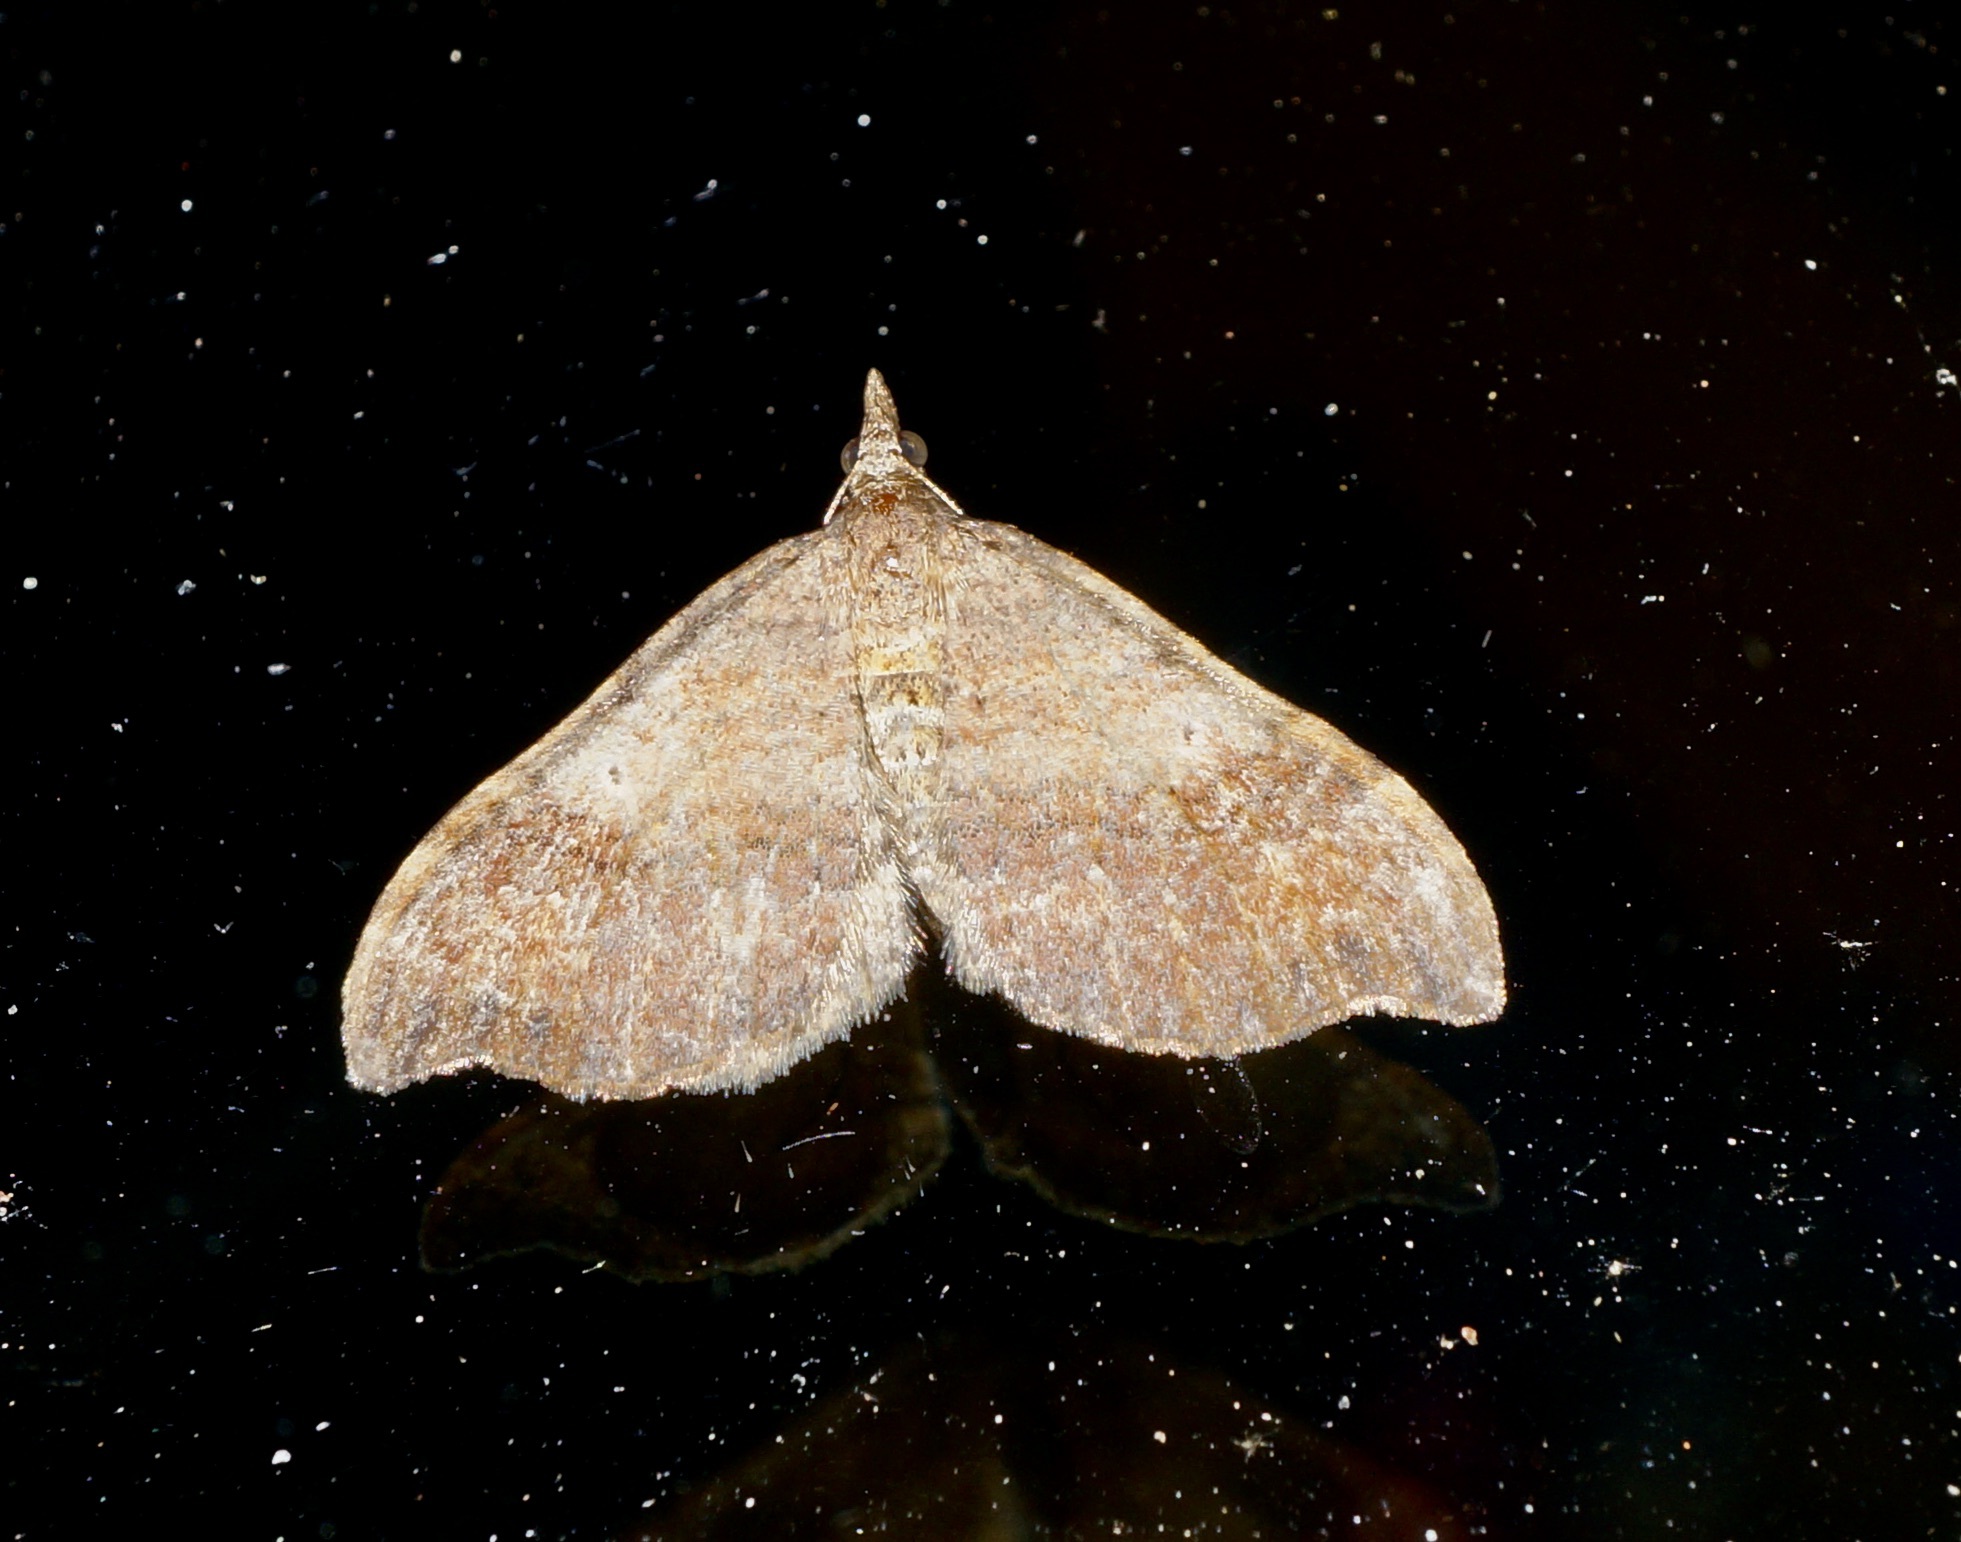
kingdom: Animalia
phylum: Arthropoda
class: Insecta
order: Lepidoptera
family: Geometridae
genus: Homodotis
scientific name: Homodotis megaspilata
